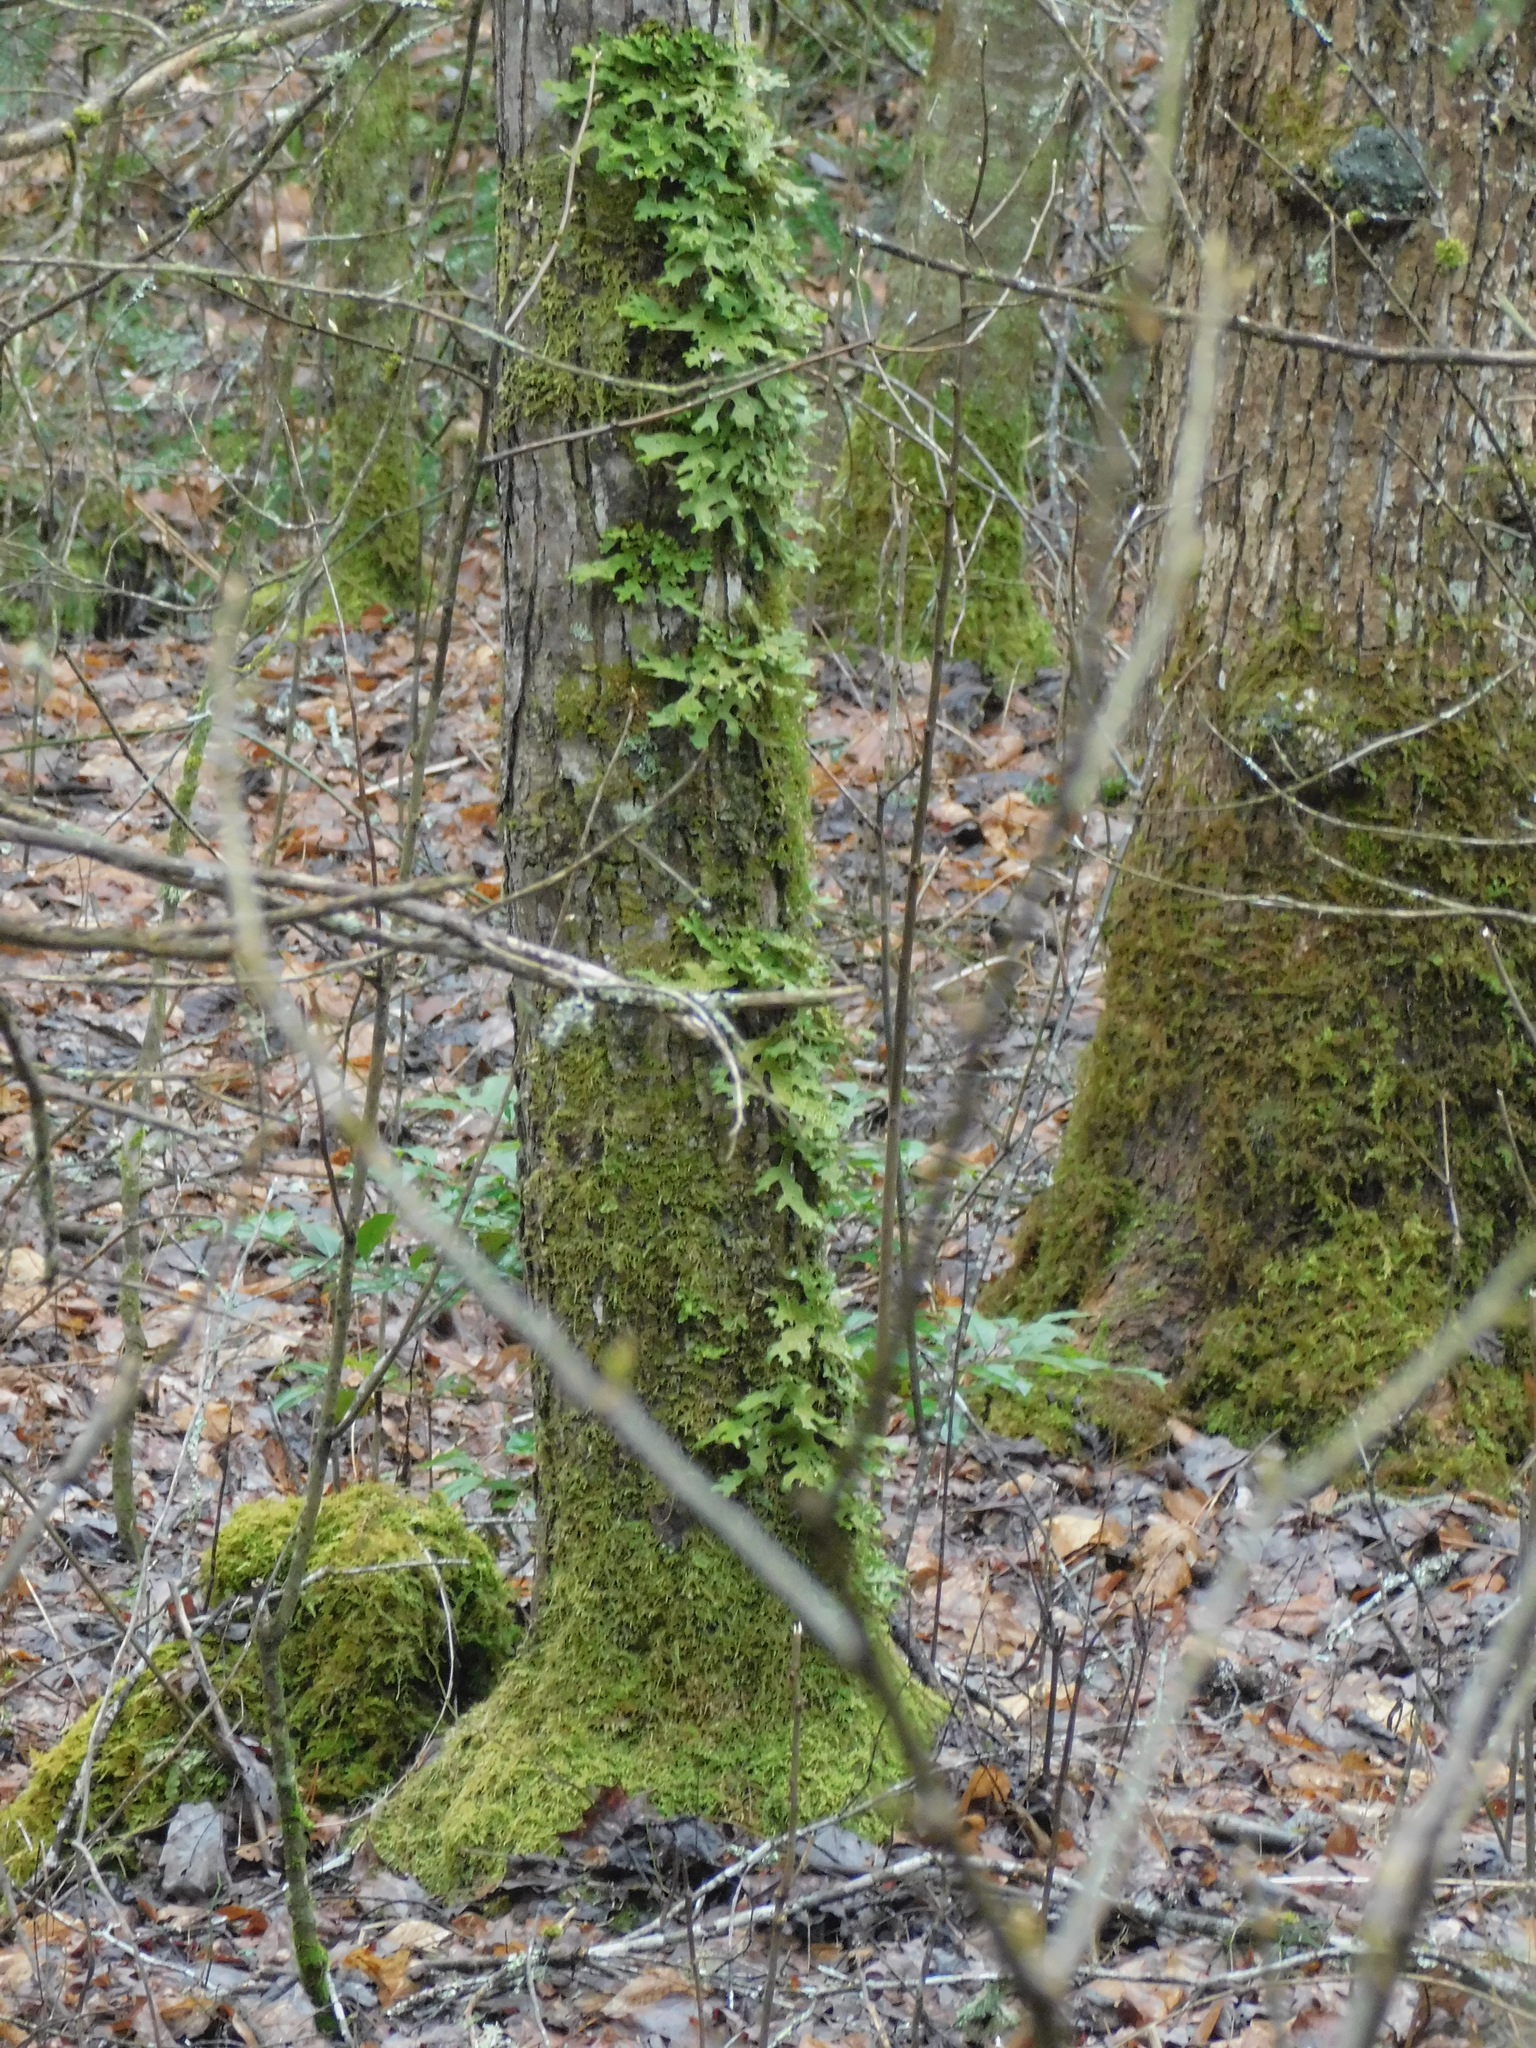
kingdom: Fungi
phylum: Ascomycota
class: Lecanoromycetes
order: Peltigerales
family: Lobariaceae
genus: Lobaria
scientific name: Lobaria pulmonaria
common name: Lungwort
